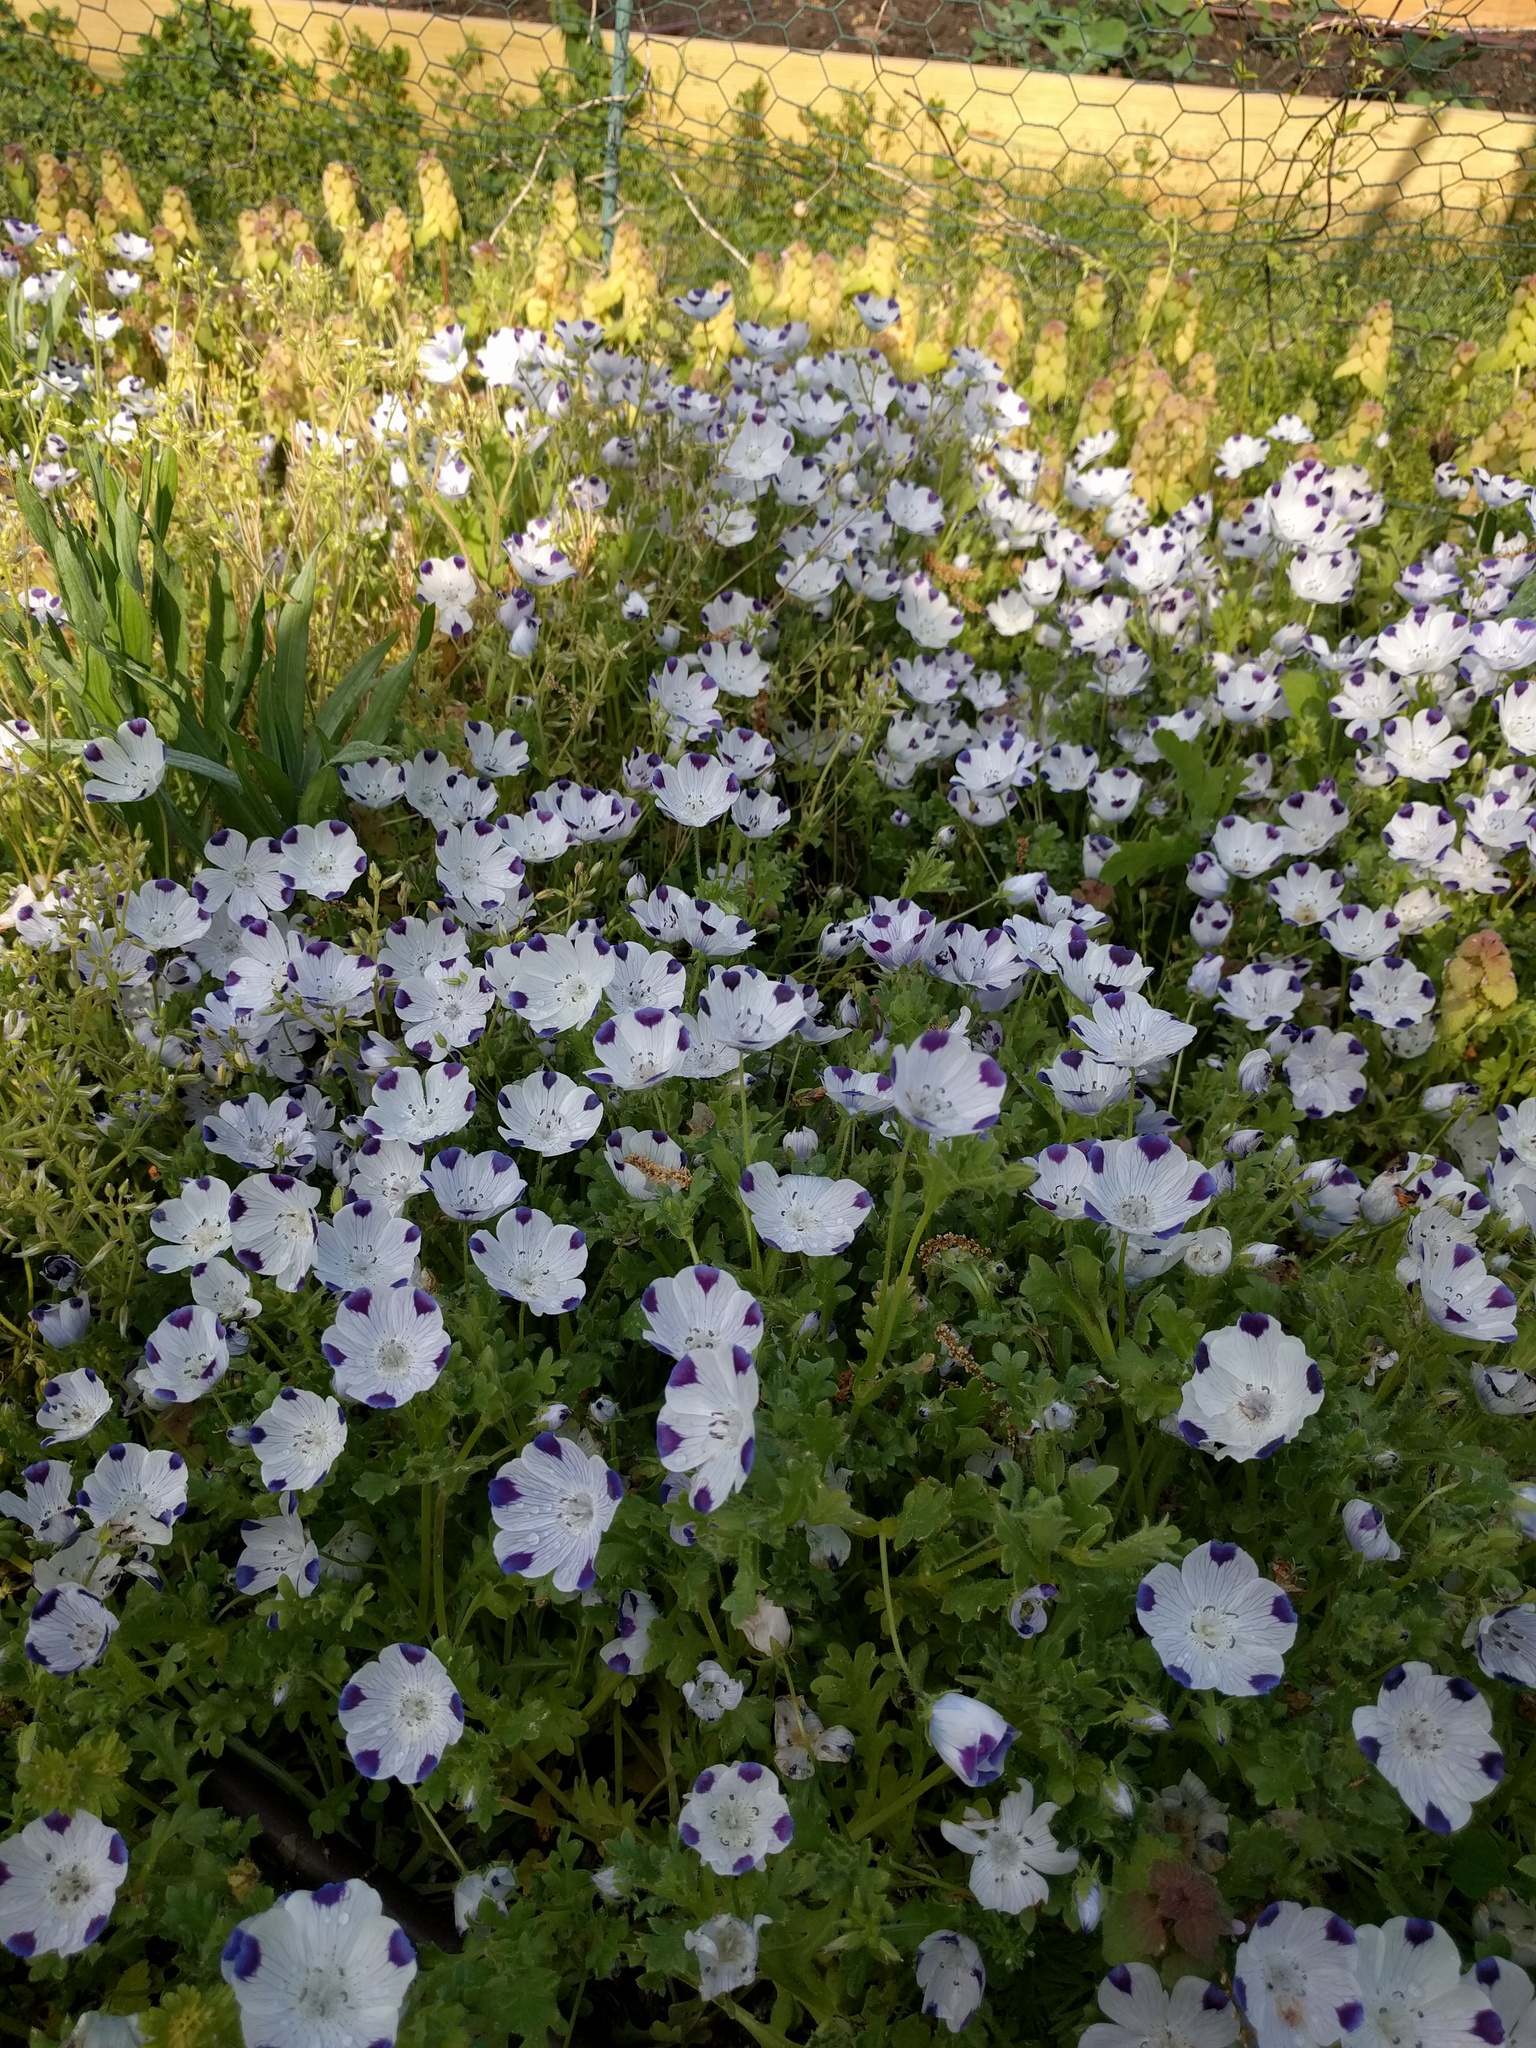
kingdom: Plantae
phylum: Tracheophyta
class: Magnoliopsida
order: Boraginales
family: Hydrophyllaceae
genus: Nemophila
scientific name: Nemophila maculata
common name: Fivespot
